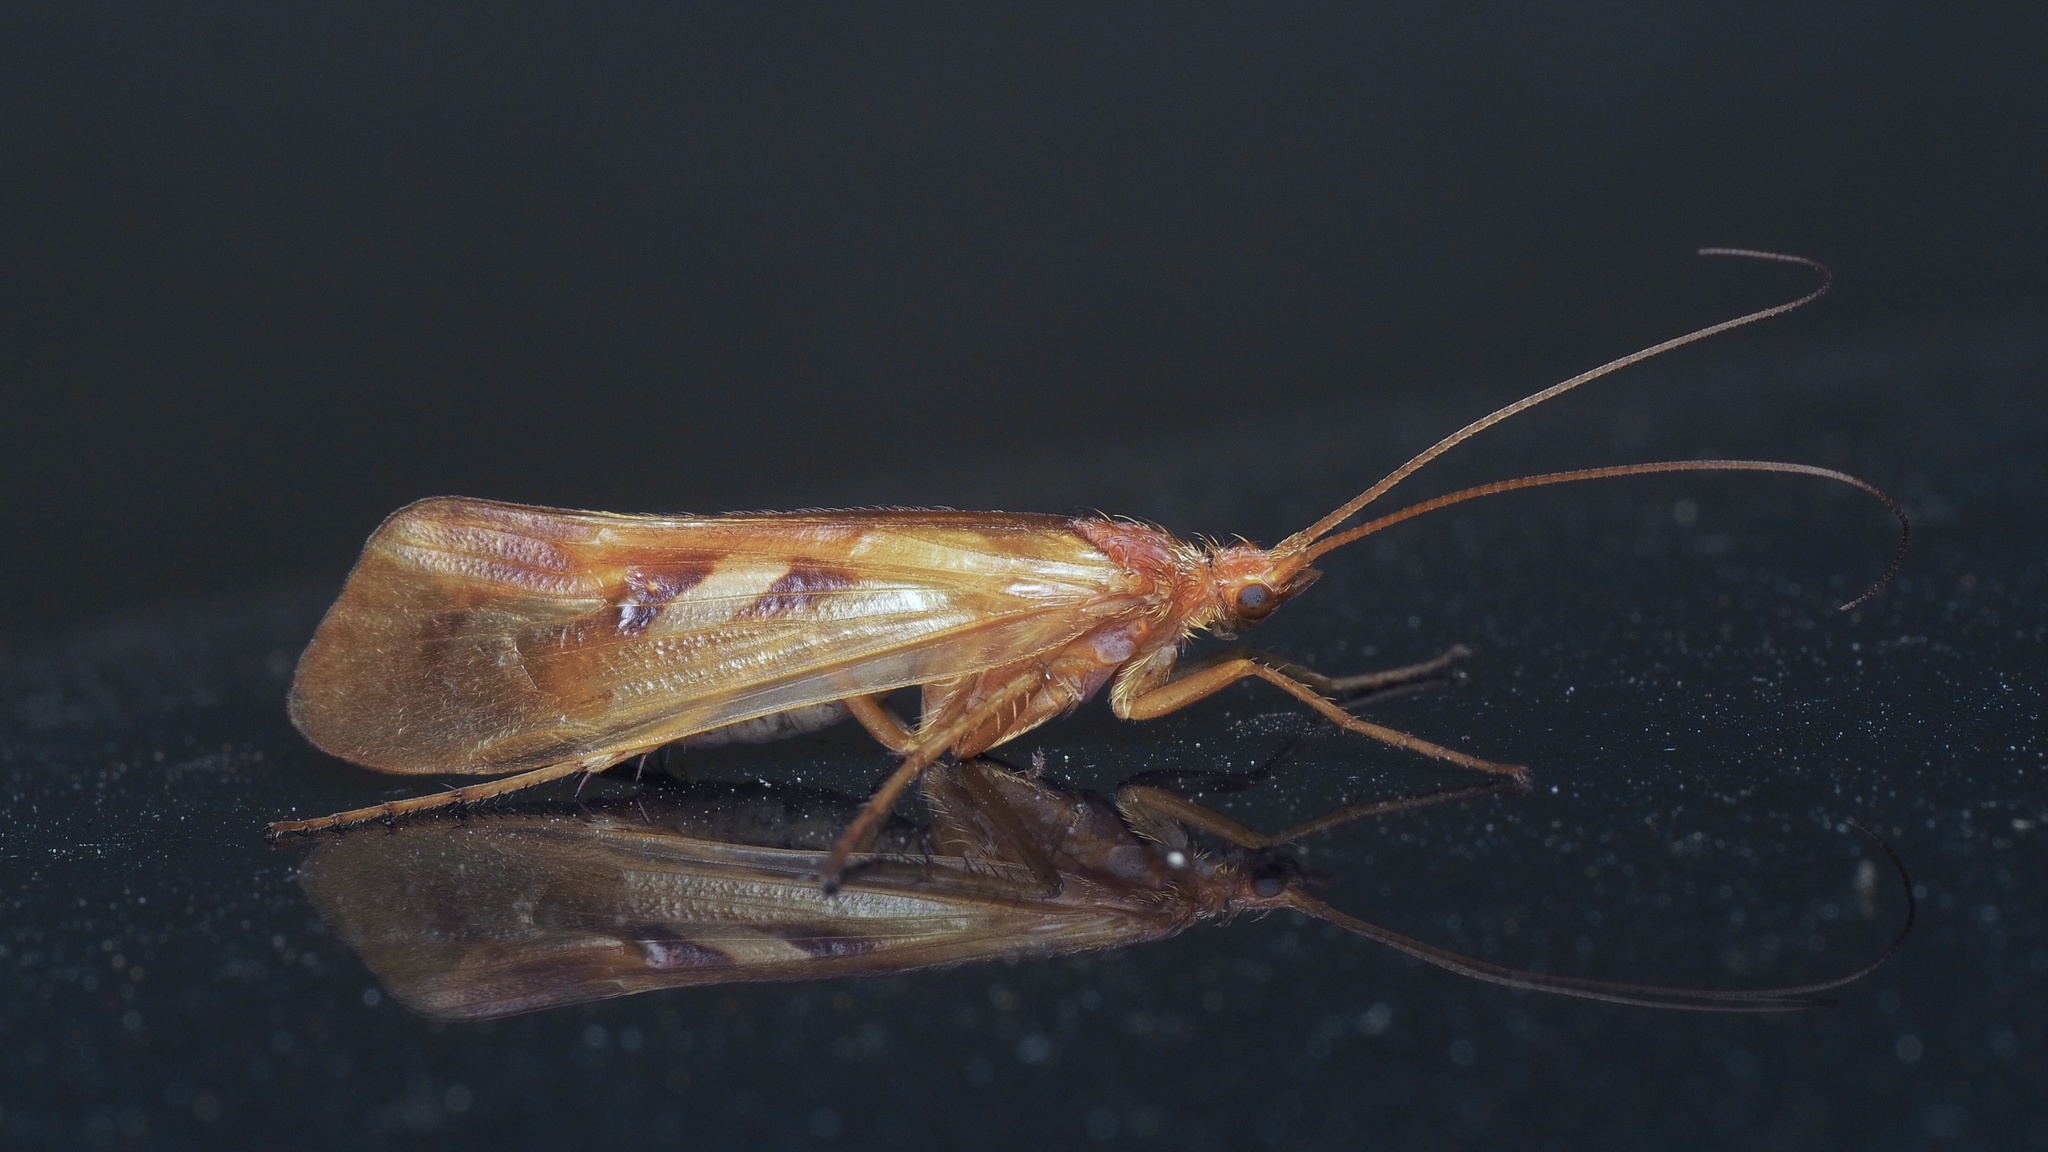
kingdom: Animalia
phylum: Arthropoda
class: Insecta
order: Trichoptera
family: Limnephilidae
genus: Limnephilus
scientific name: Limnephilus rhombicus
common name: Diamond northern caddisfly
